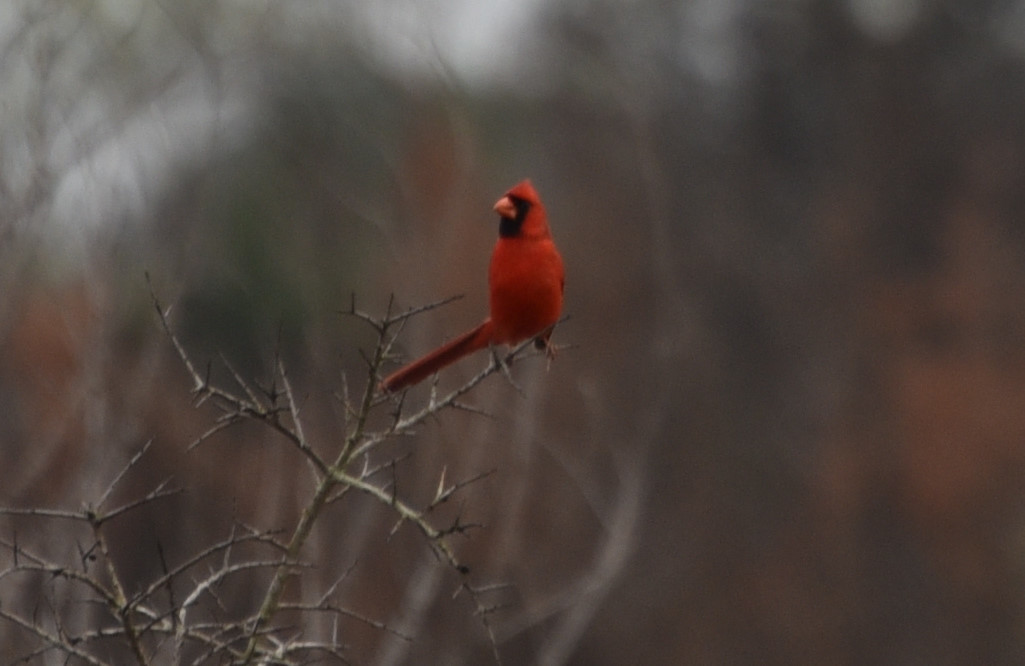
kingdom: Animalia
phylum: Chordata
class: Aves
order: Passeriformes
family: Cardinalidae
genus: Cardinalis
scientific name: Cardinalis cardinalis
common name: Northern cardinal
